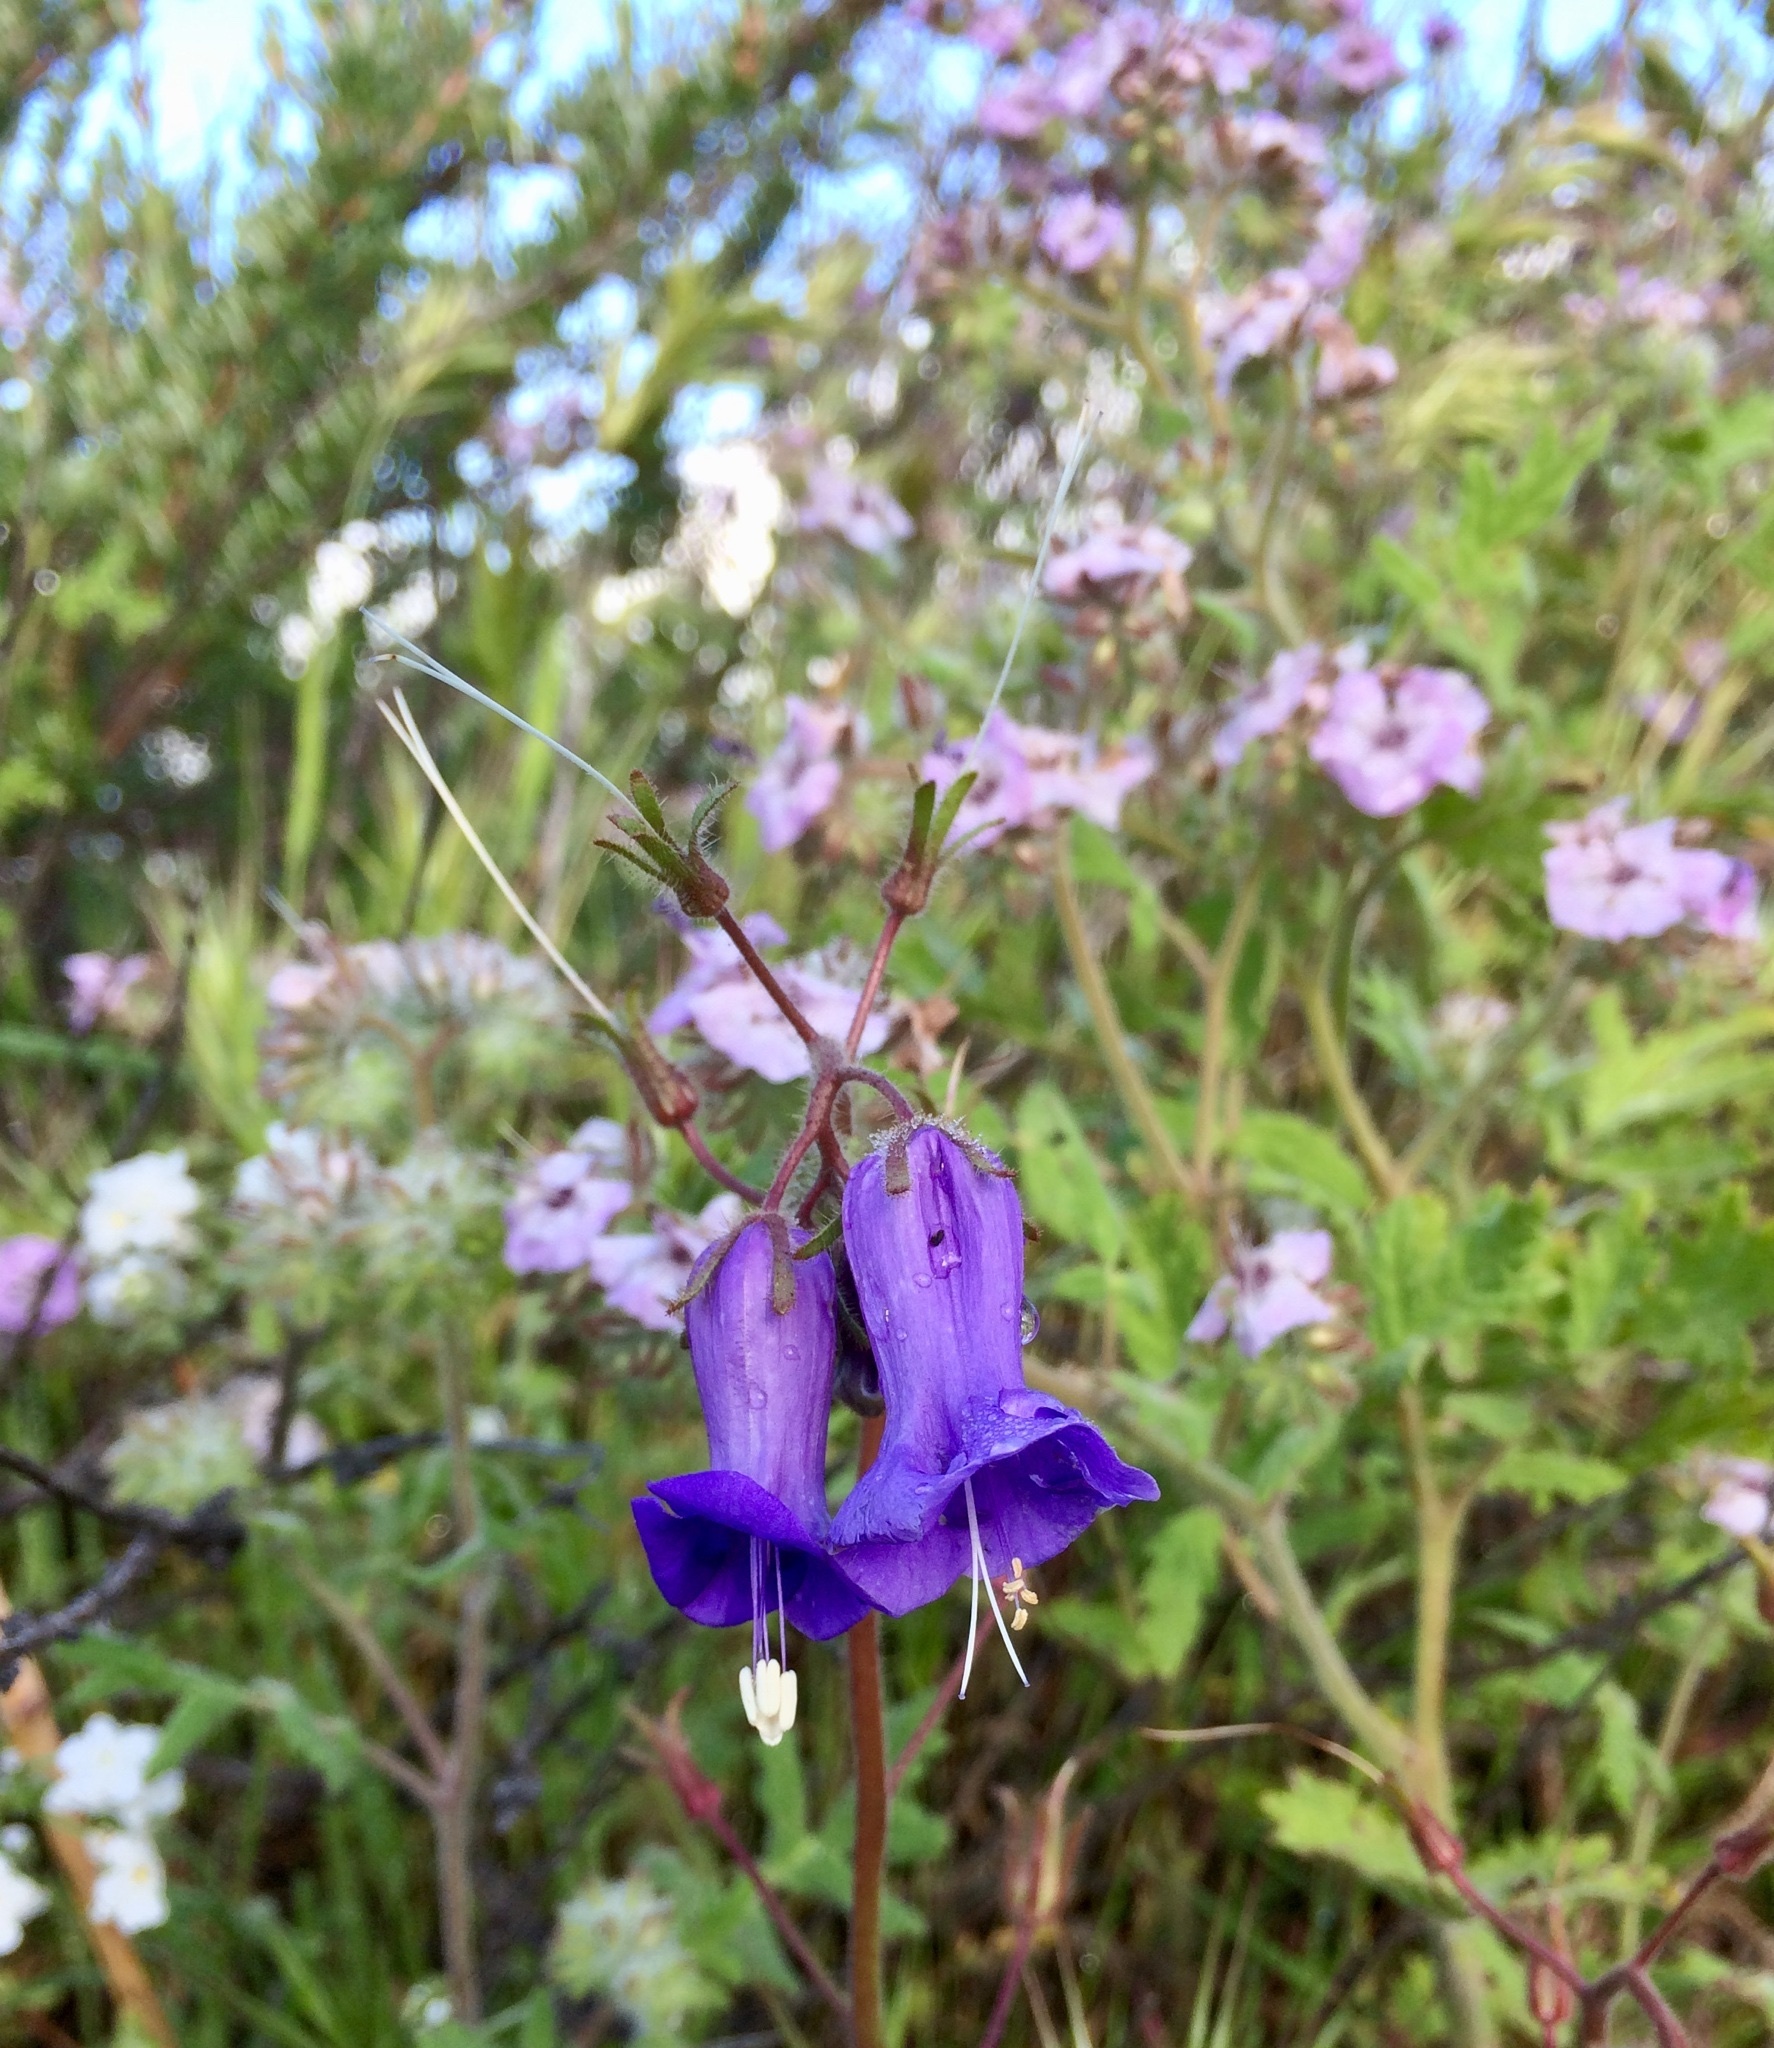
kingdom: Plantae
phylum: Tracheophyta
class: Magnoliopsida
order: Boraginales
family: Hydrophyllaceae
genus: Phacelia
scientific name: Phacelia minor
